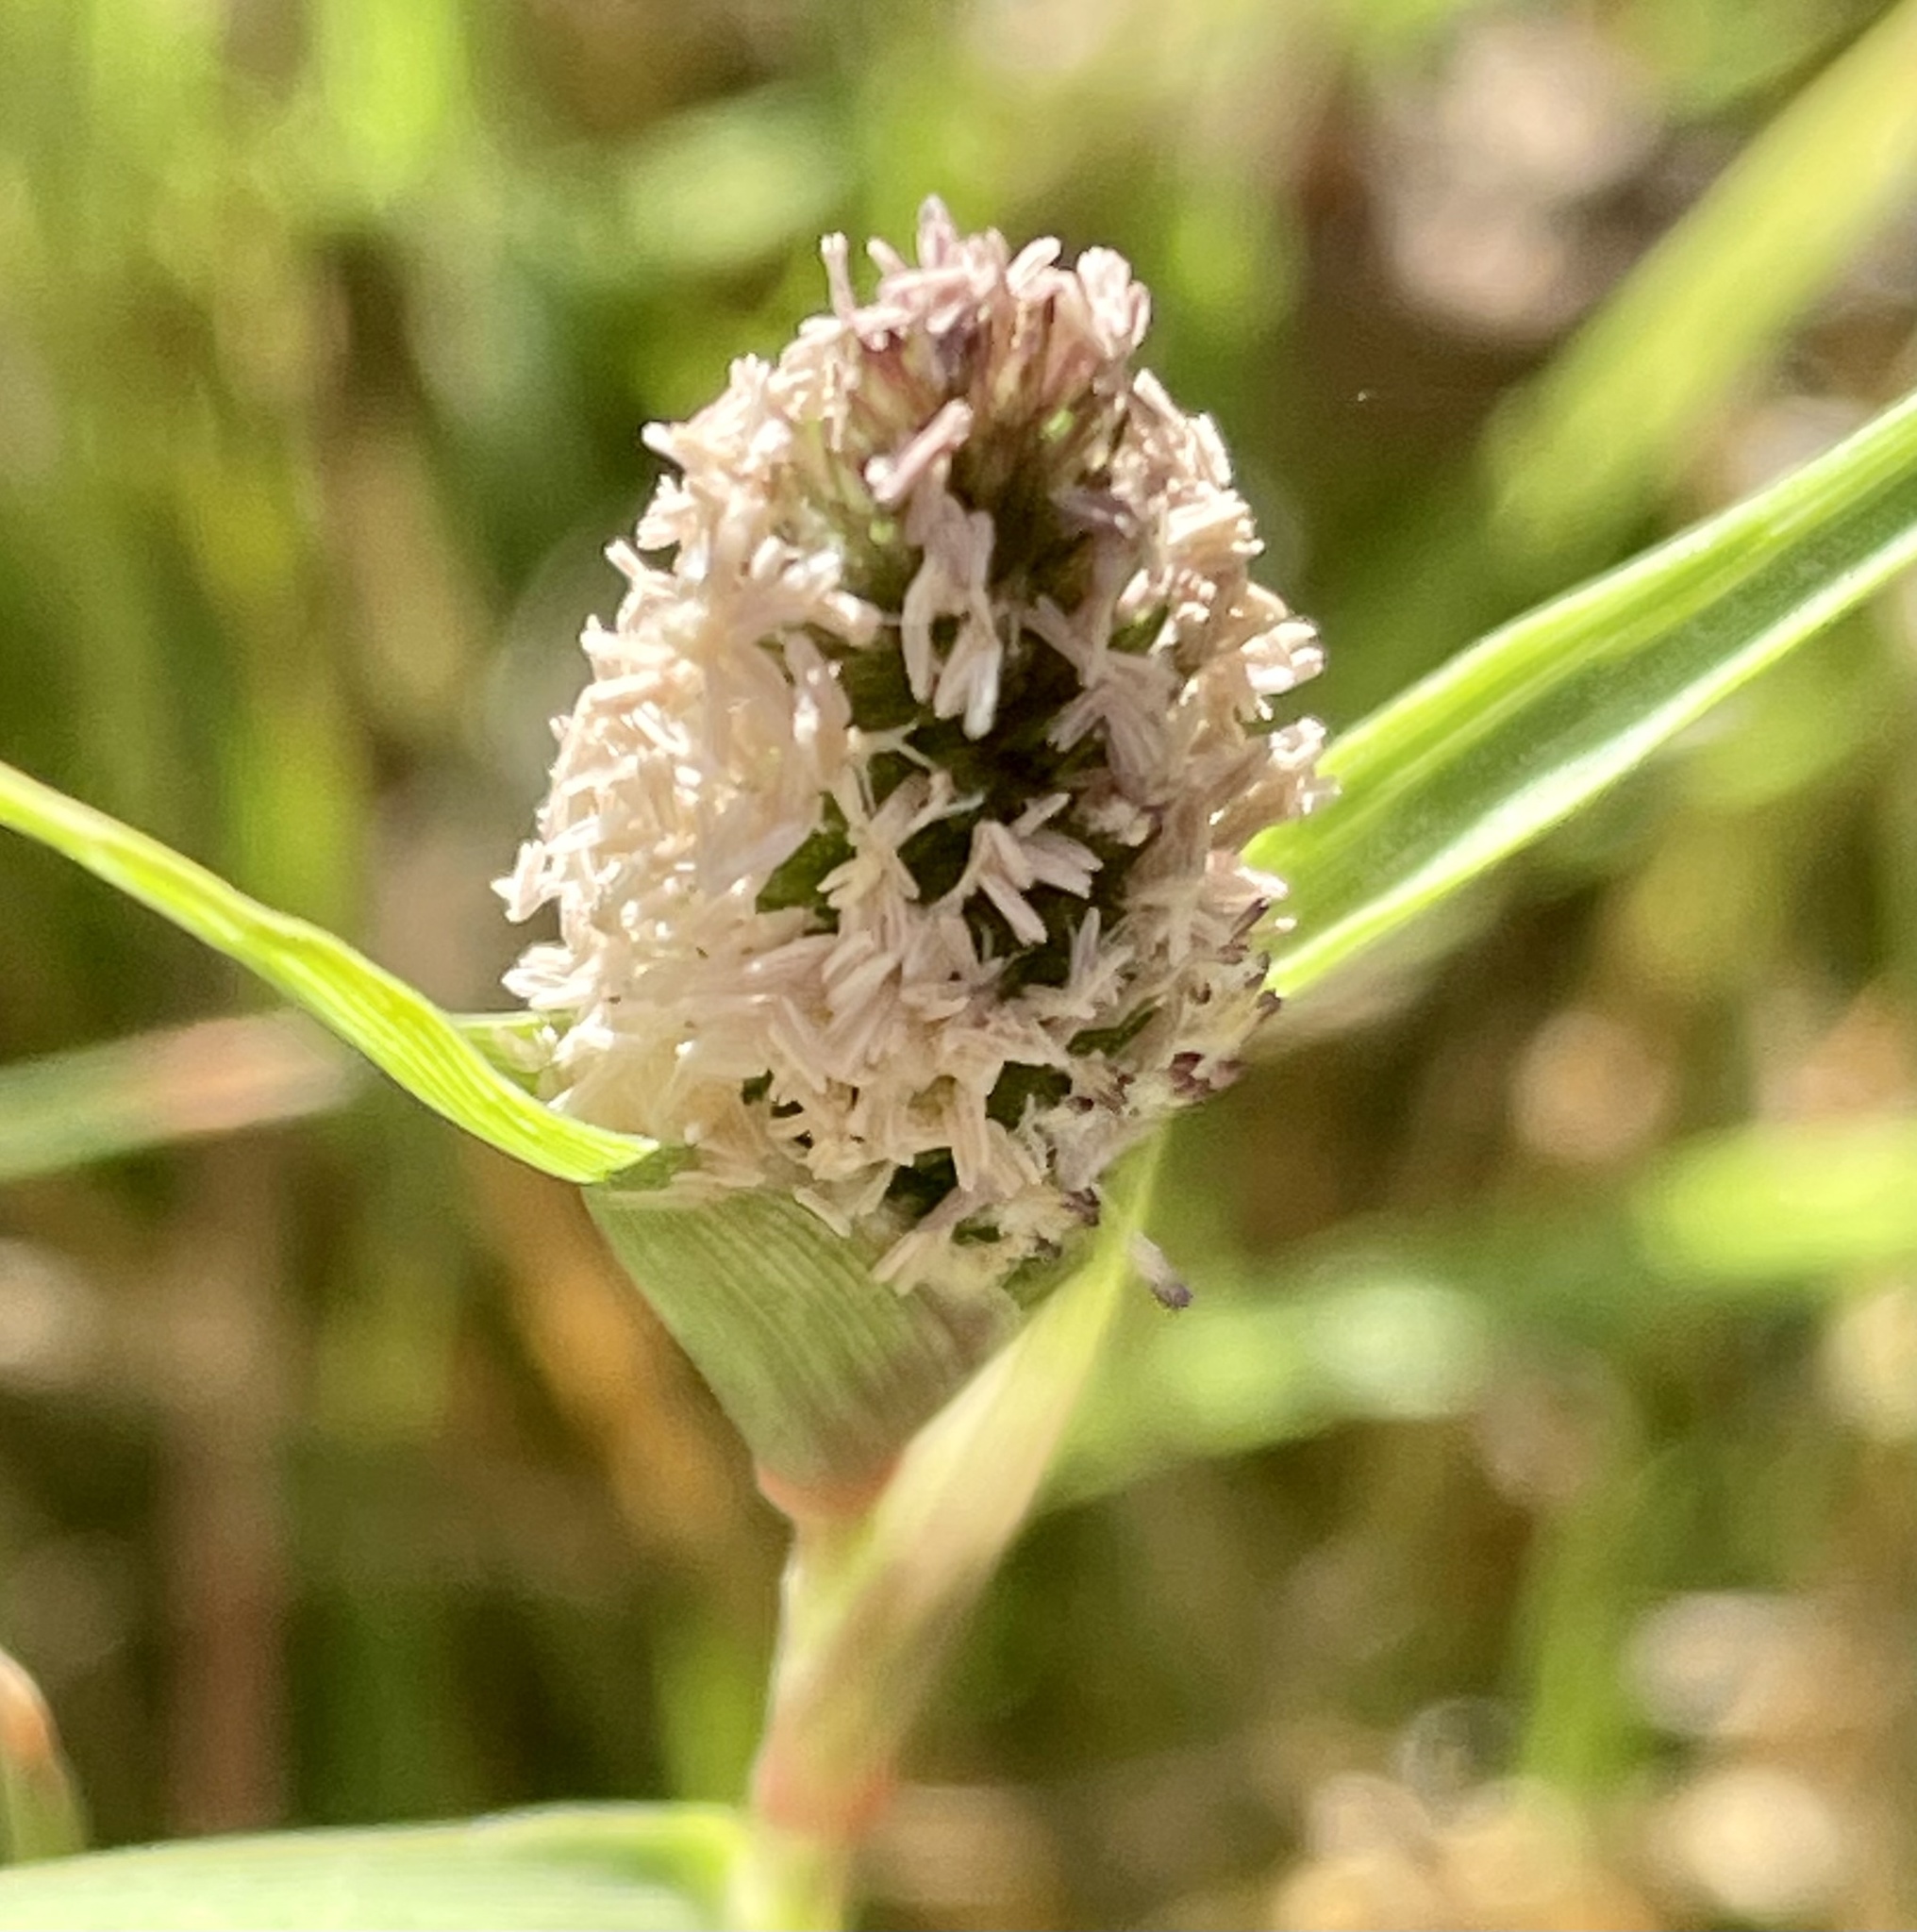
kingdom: Plantae
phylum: Tracheophyta
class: Liliopsida
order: Poales
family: Poaceae
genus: Sporobolus
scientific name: Sporobolus schoenoides
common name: Rush-like timothy
